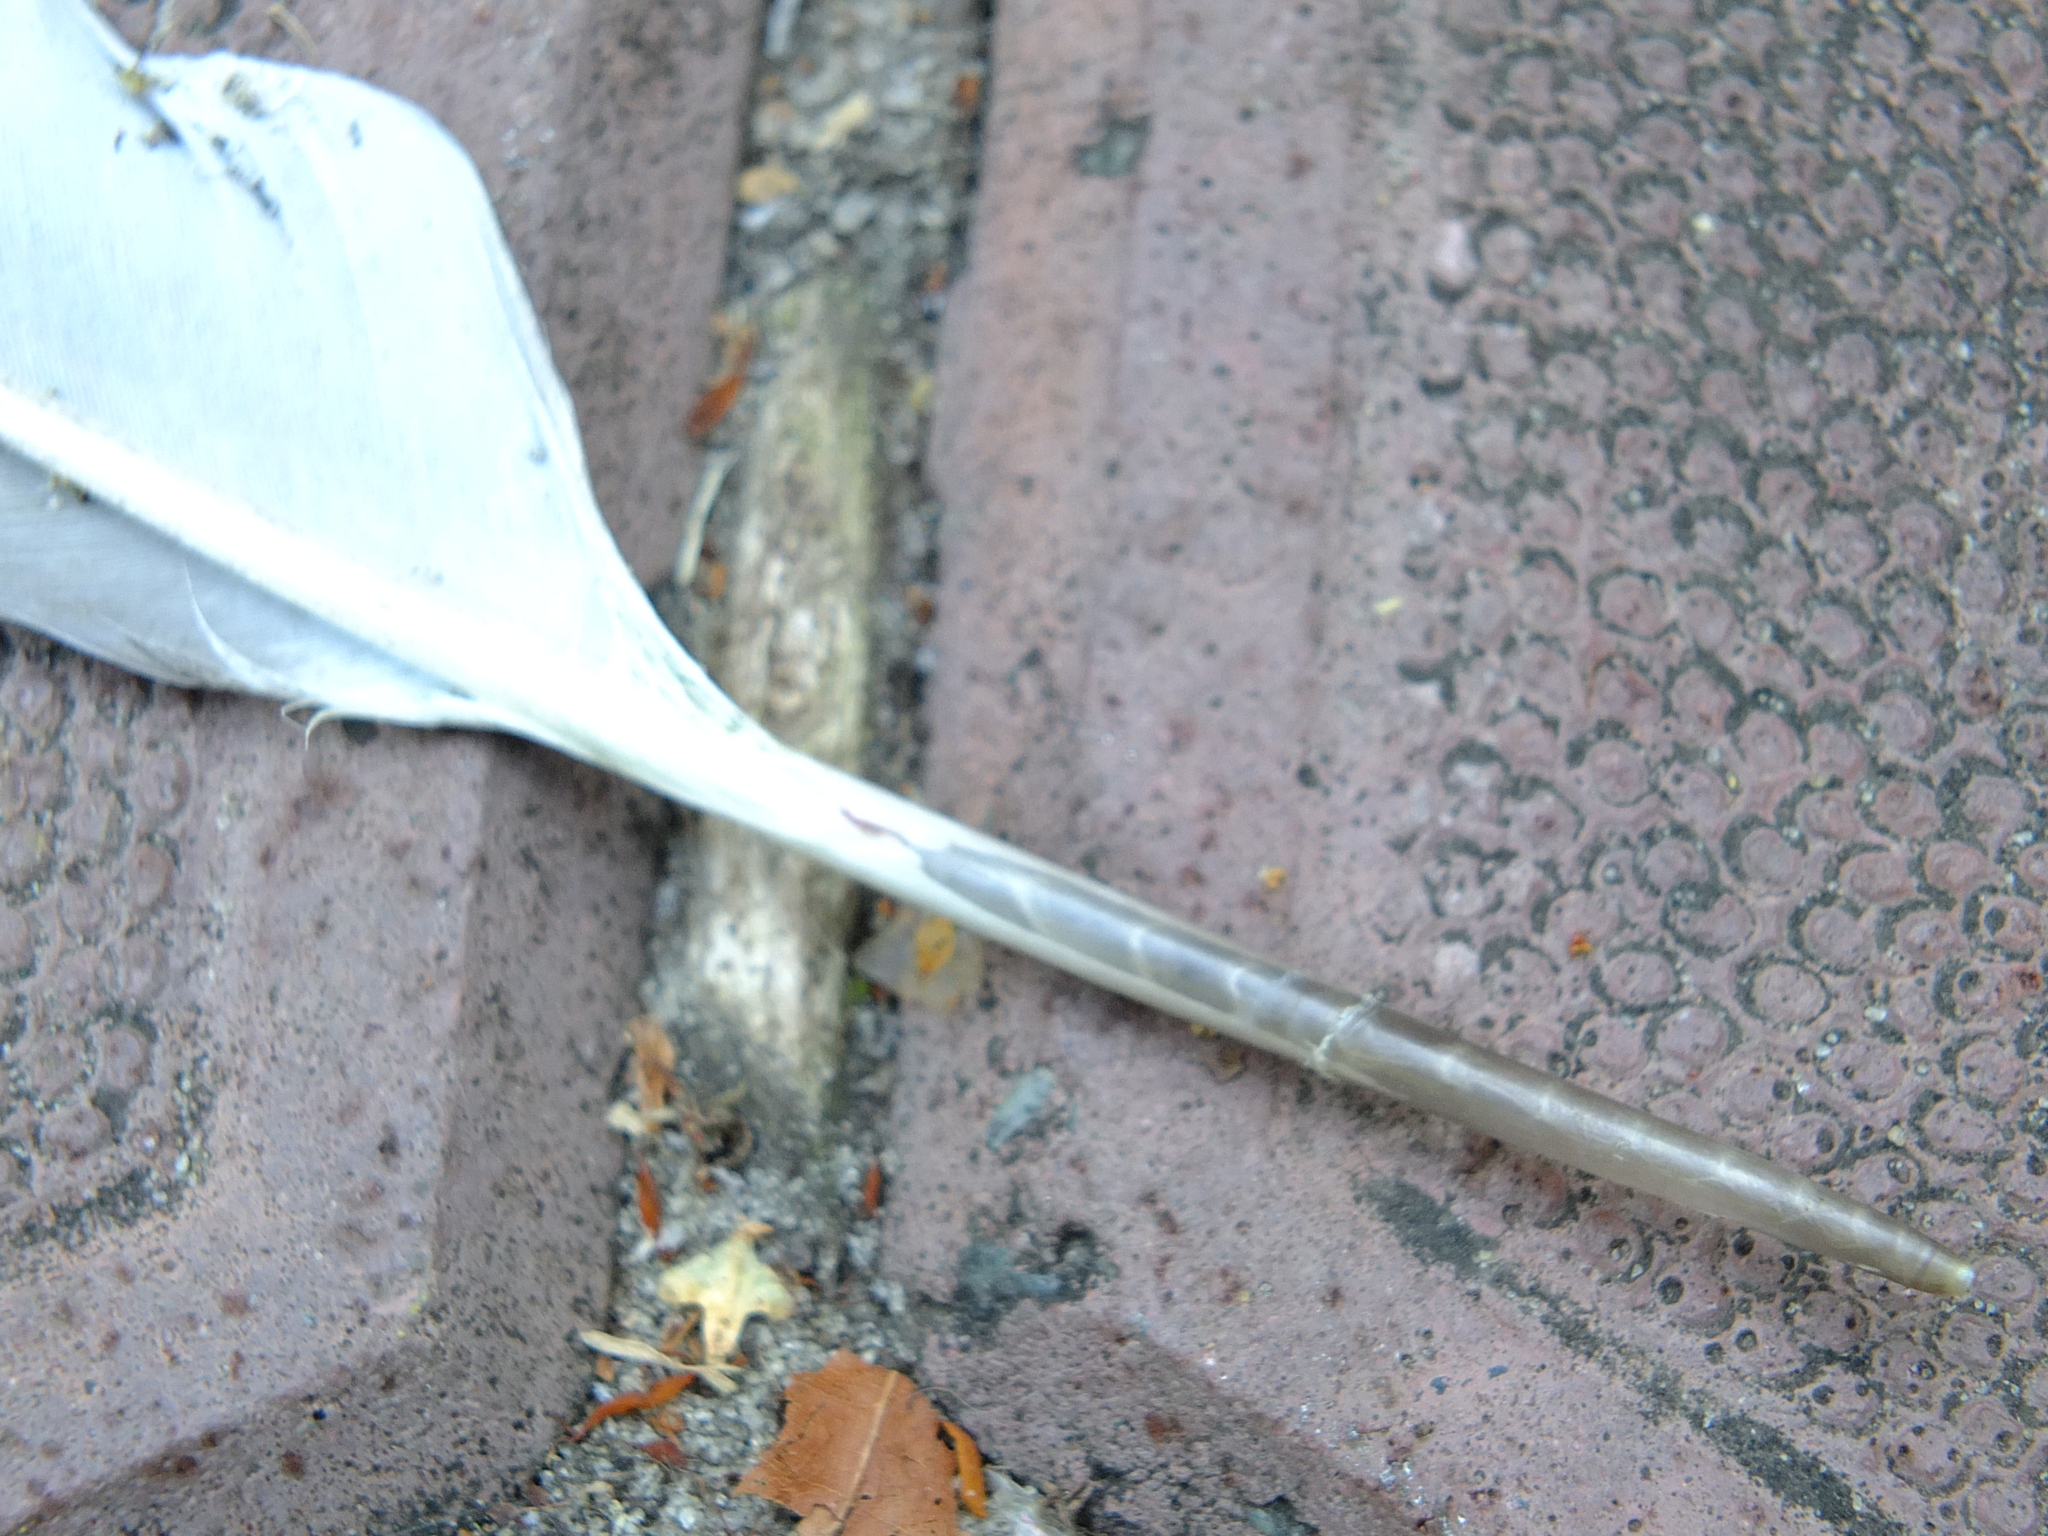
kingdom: Animalia
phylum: Chordata
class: Aves
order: Columbiformes
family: Columbidae
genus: Columba
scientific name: Columba livia
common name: Rock pigeon
